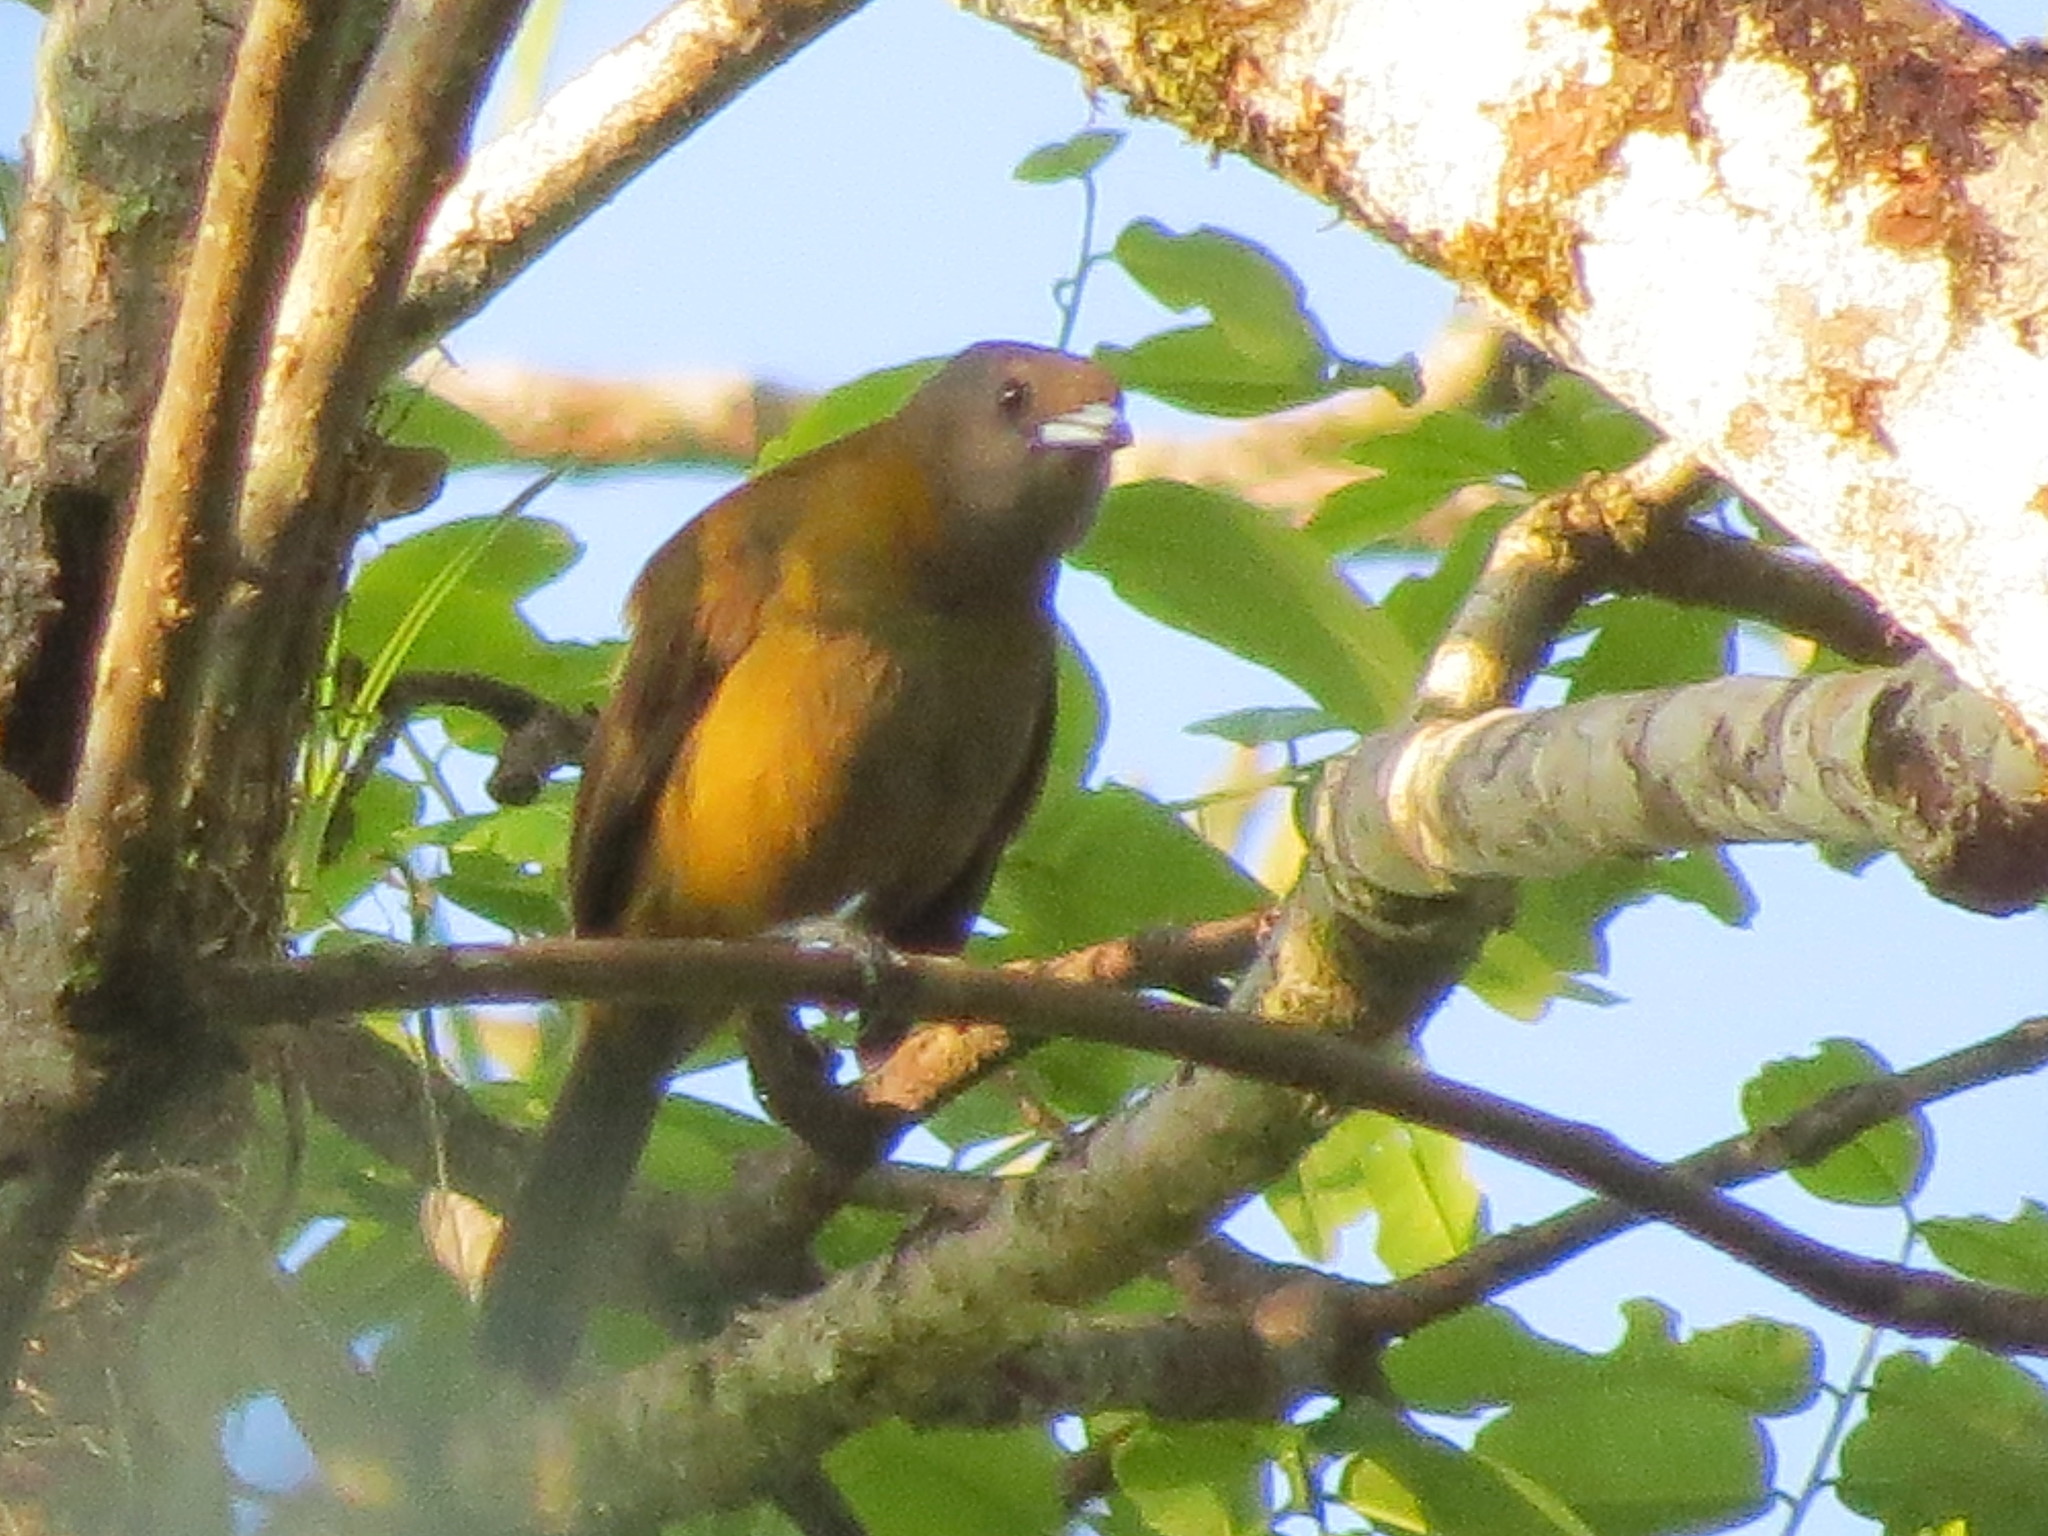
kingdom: Animalia
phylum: Chordata
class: Aves
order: Passeriformes
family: Thraupidae
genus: Ramphocelus
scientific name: Ramphocelus passerinii
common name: Passerini's tanager
